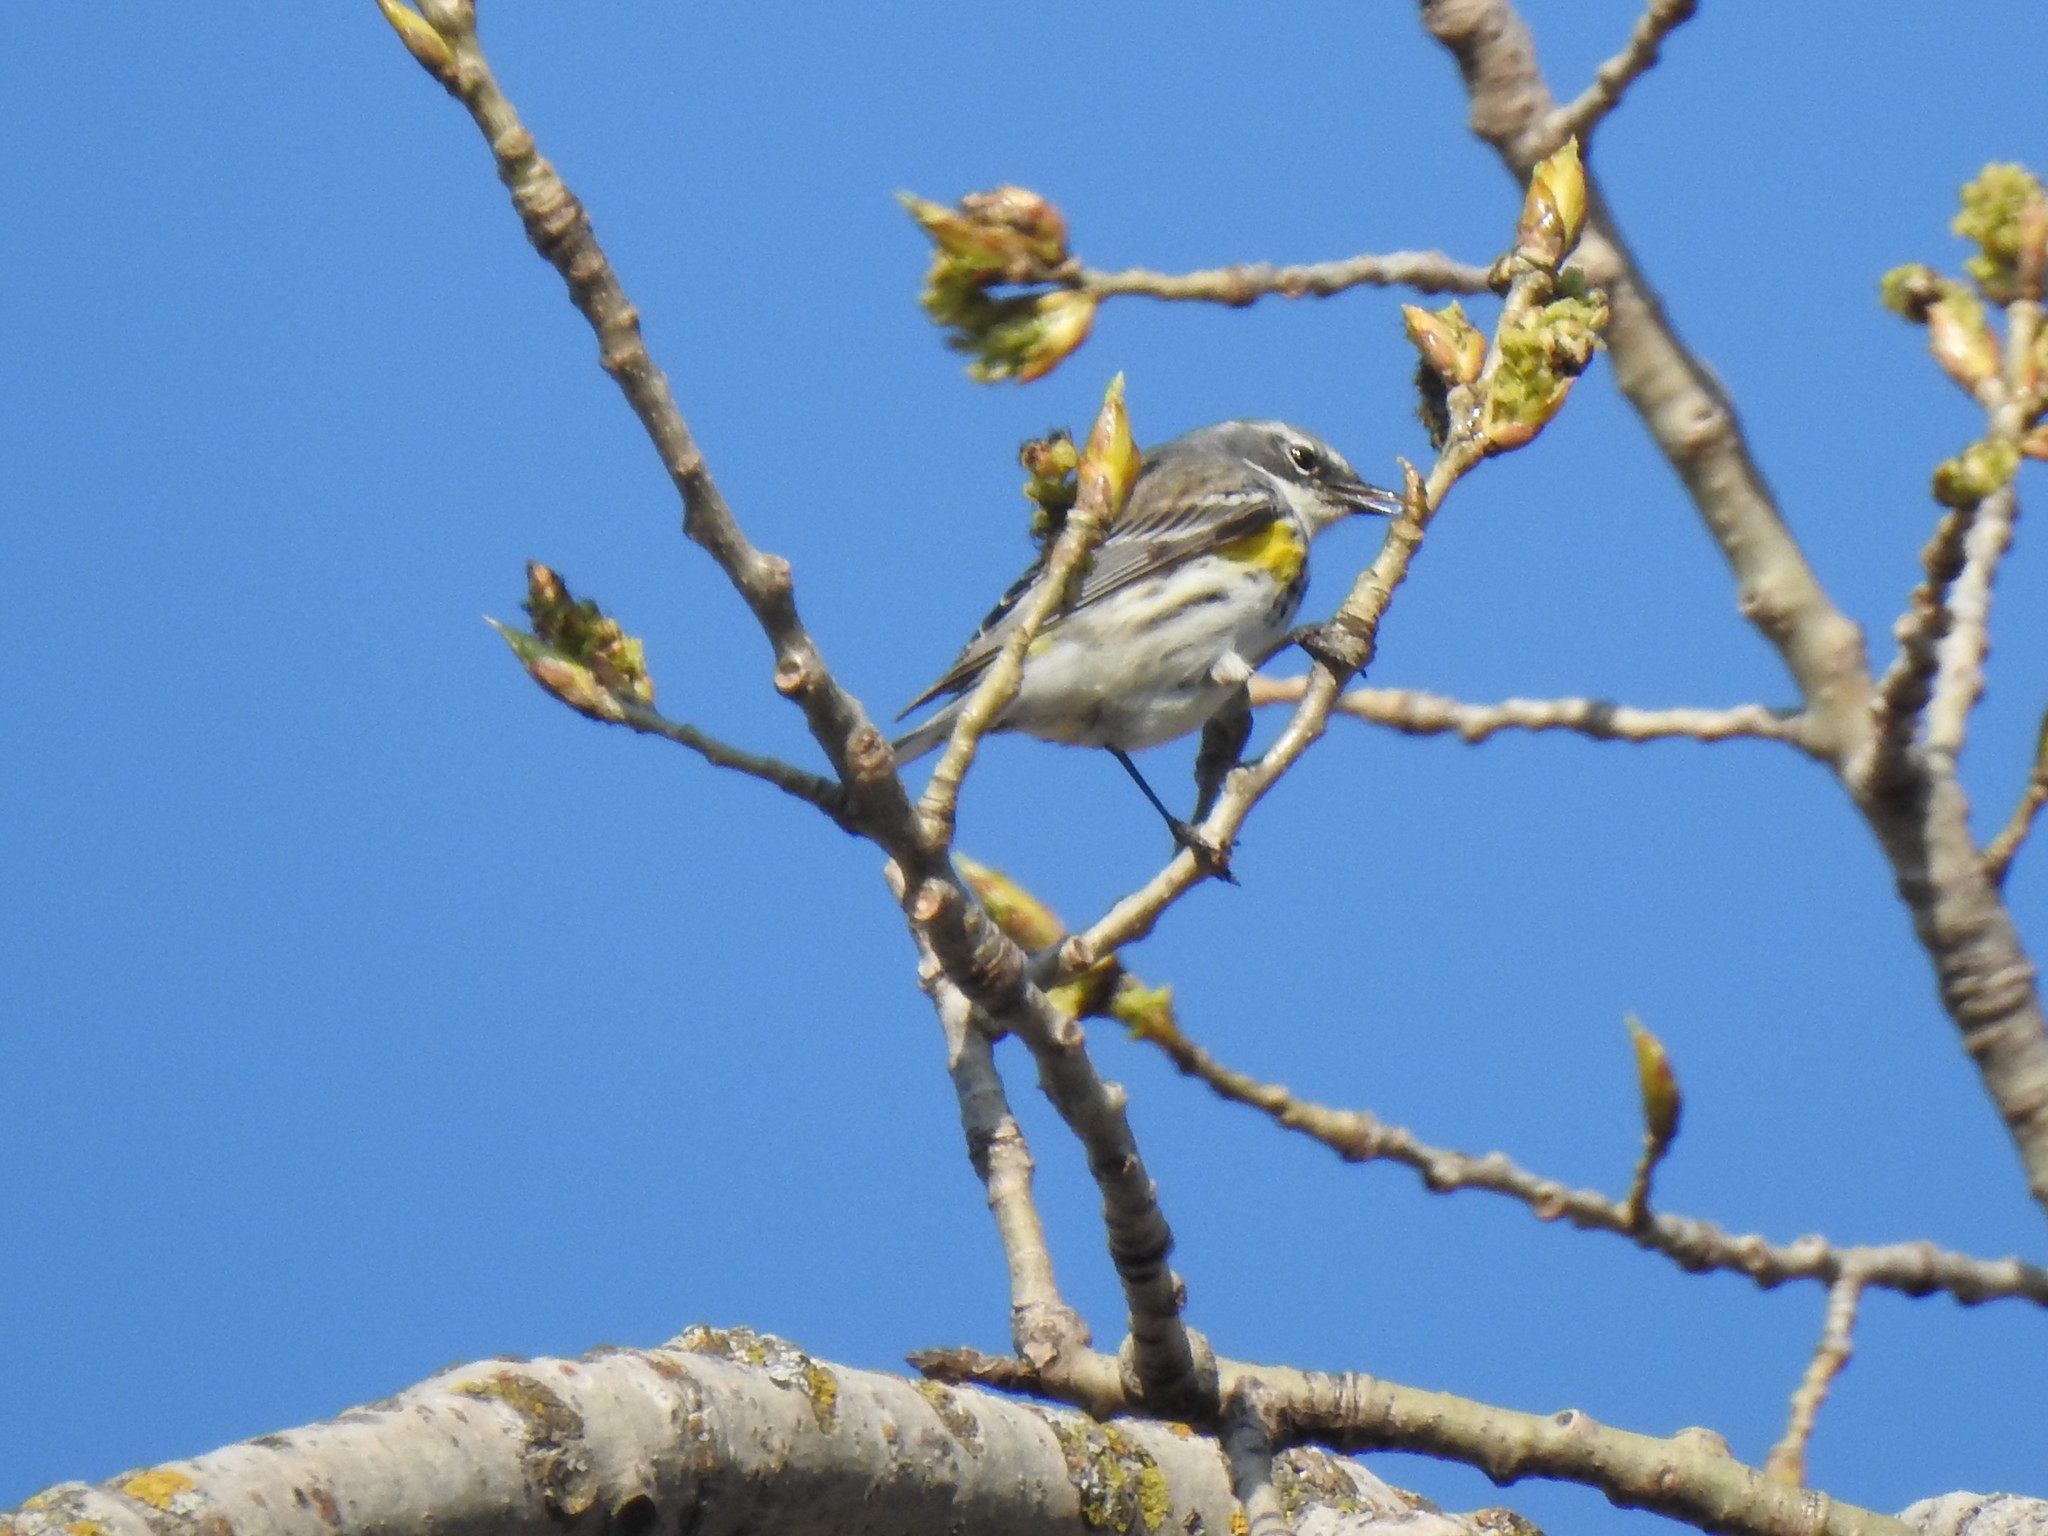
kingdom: Animalia
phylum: Chordata
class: Aves
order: Passeriformes
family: Parulidae
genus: Setophaga
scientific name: Setophaga coronata
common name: Myrtle warbler
